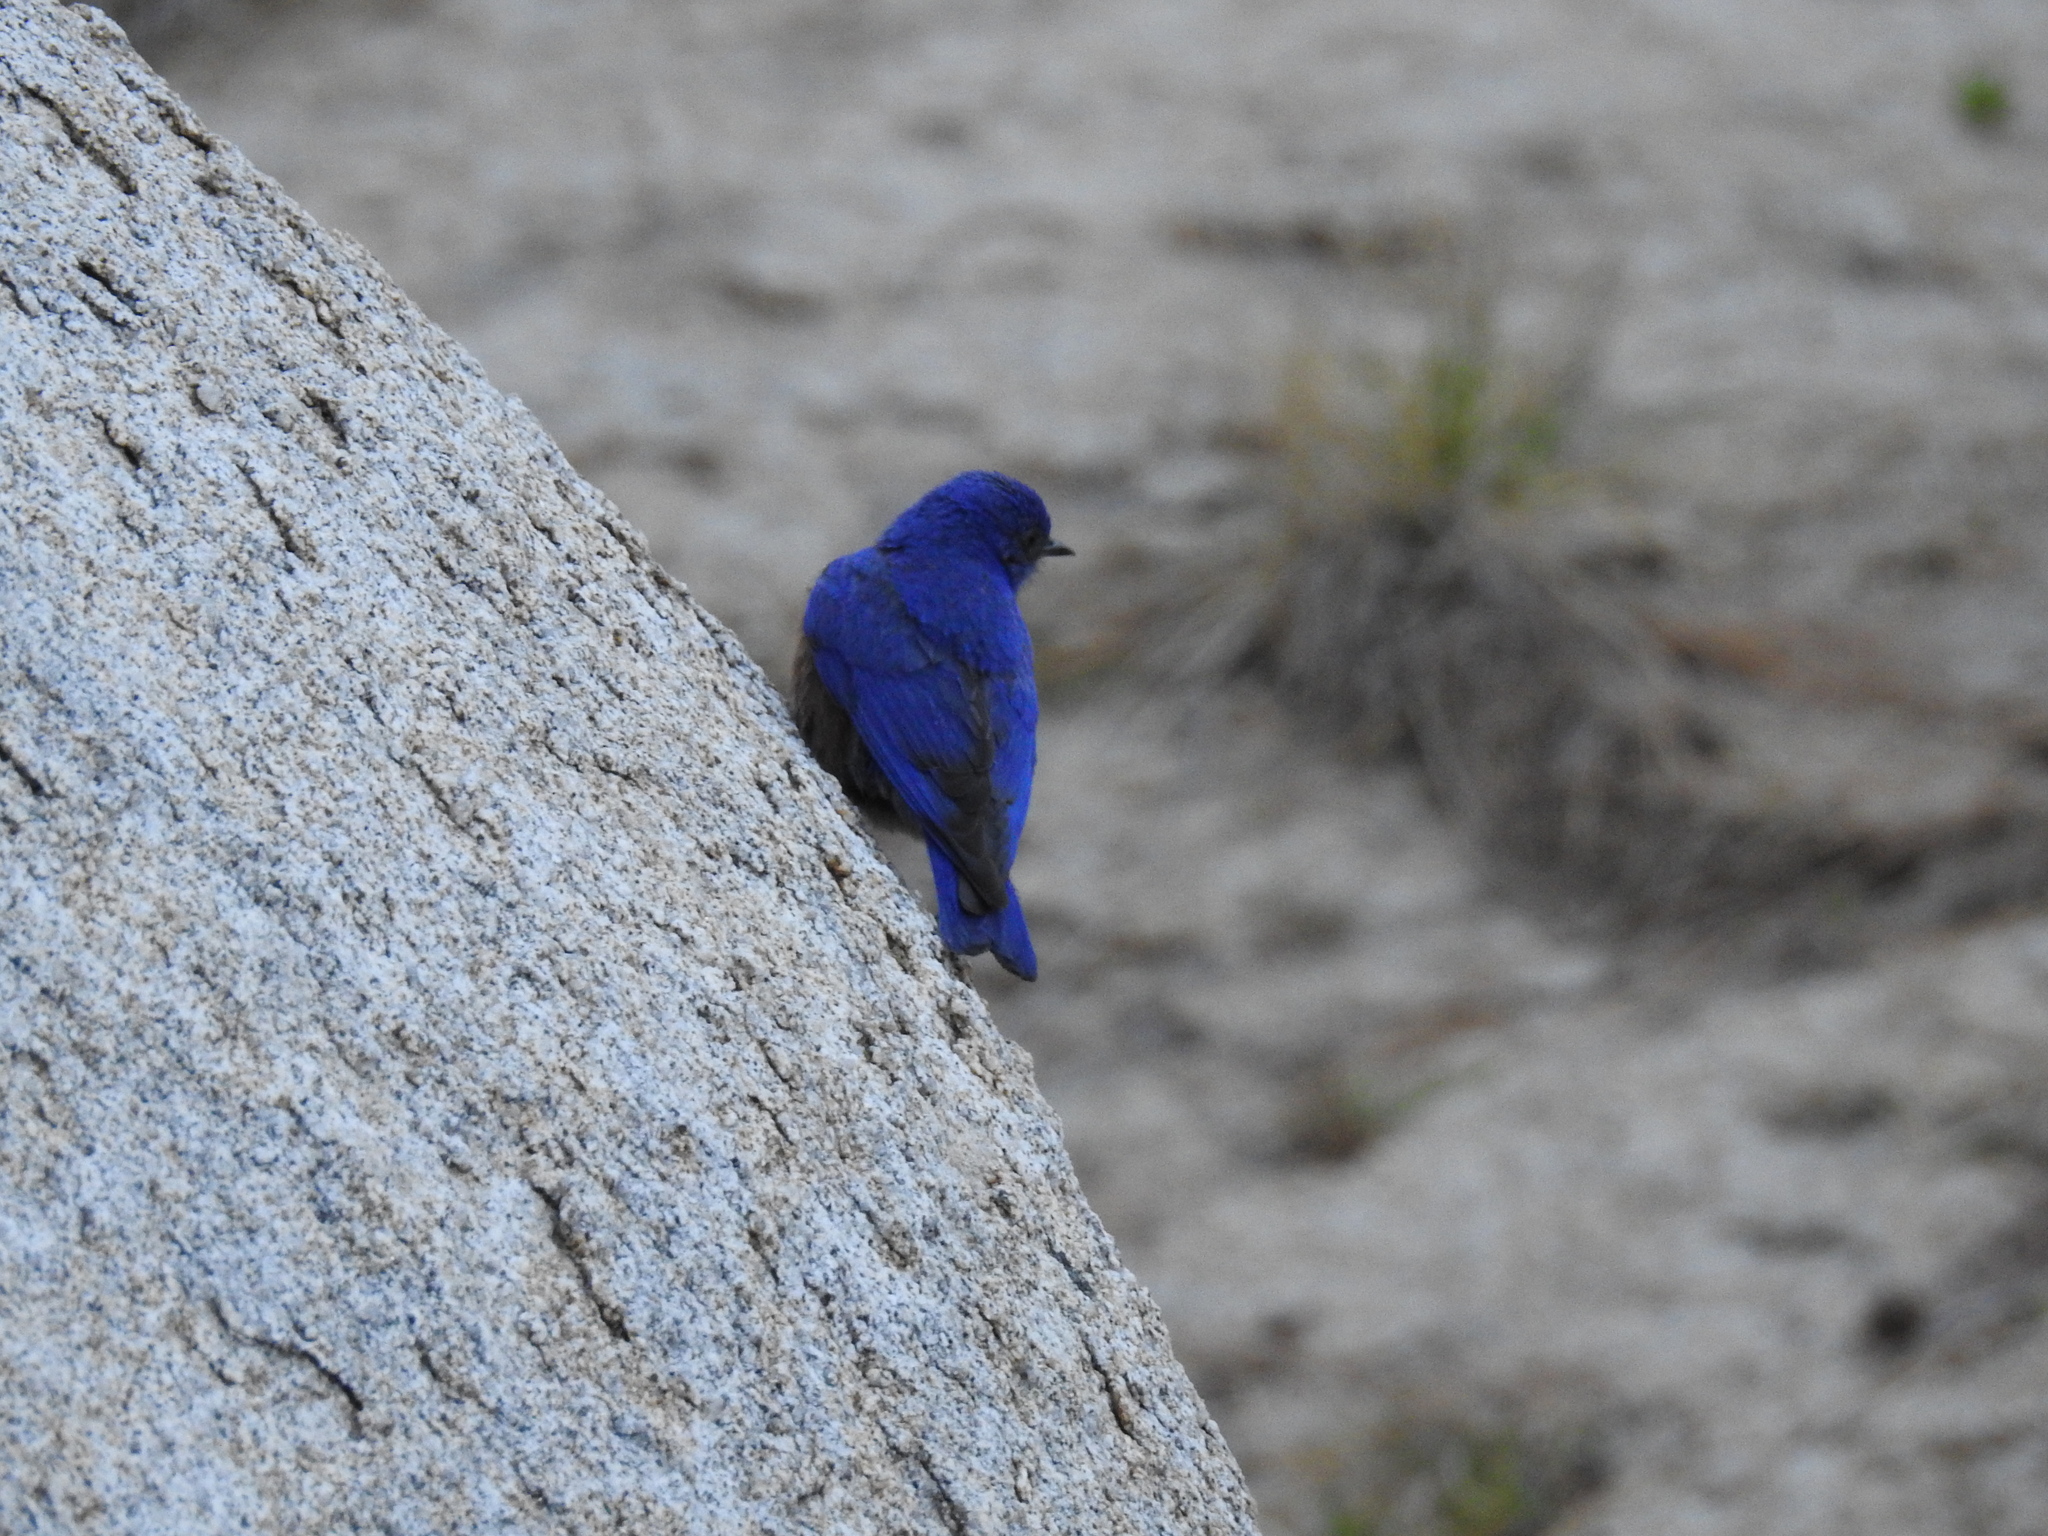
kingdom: Animalia
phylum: Chordata
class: Aves
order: Passeriformes
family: Turdidae
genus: Sialia
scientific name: Sialia mexicana
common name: Western bluebird
